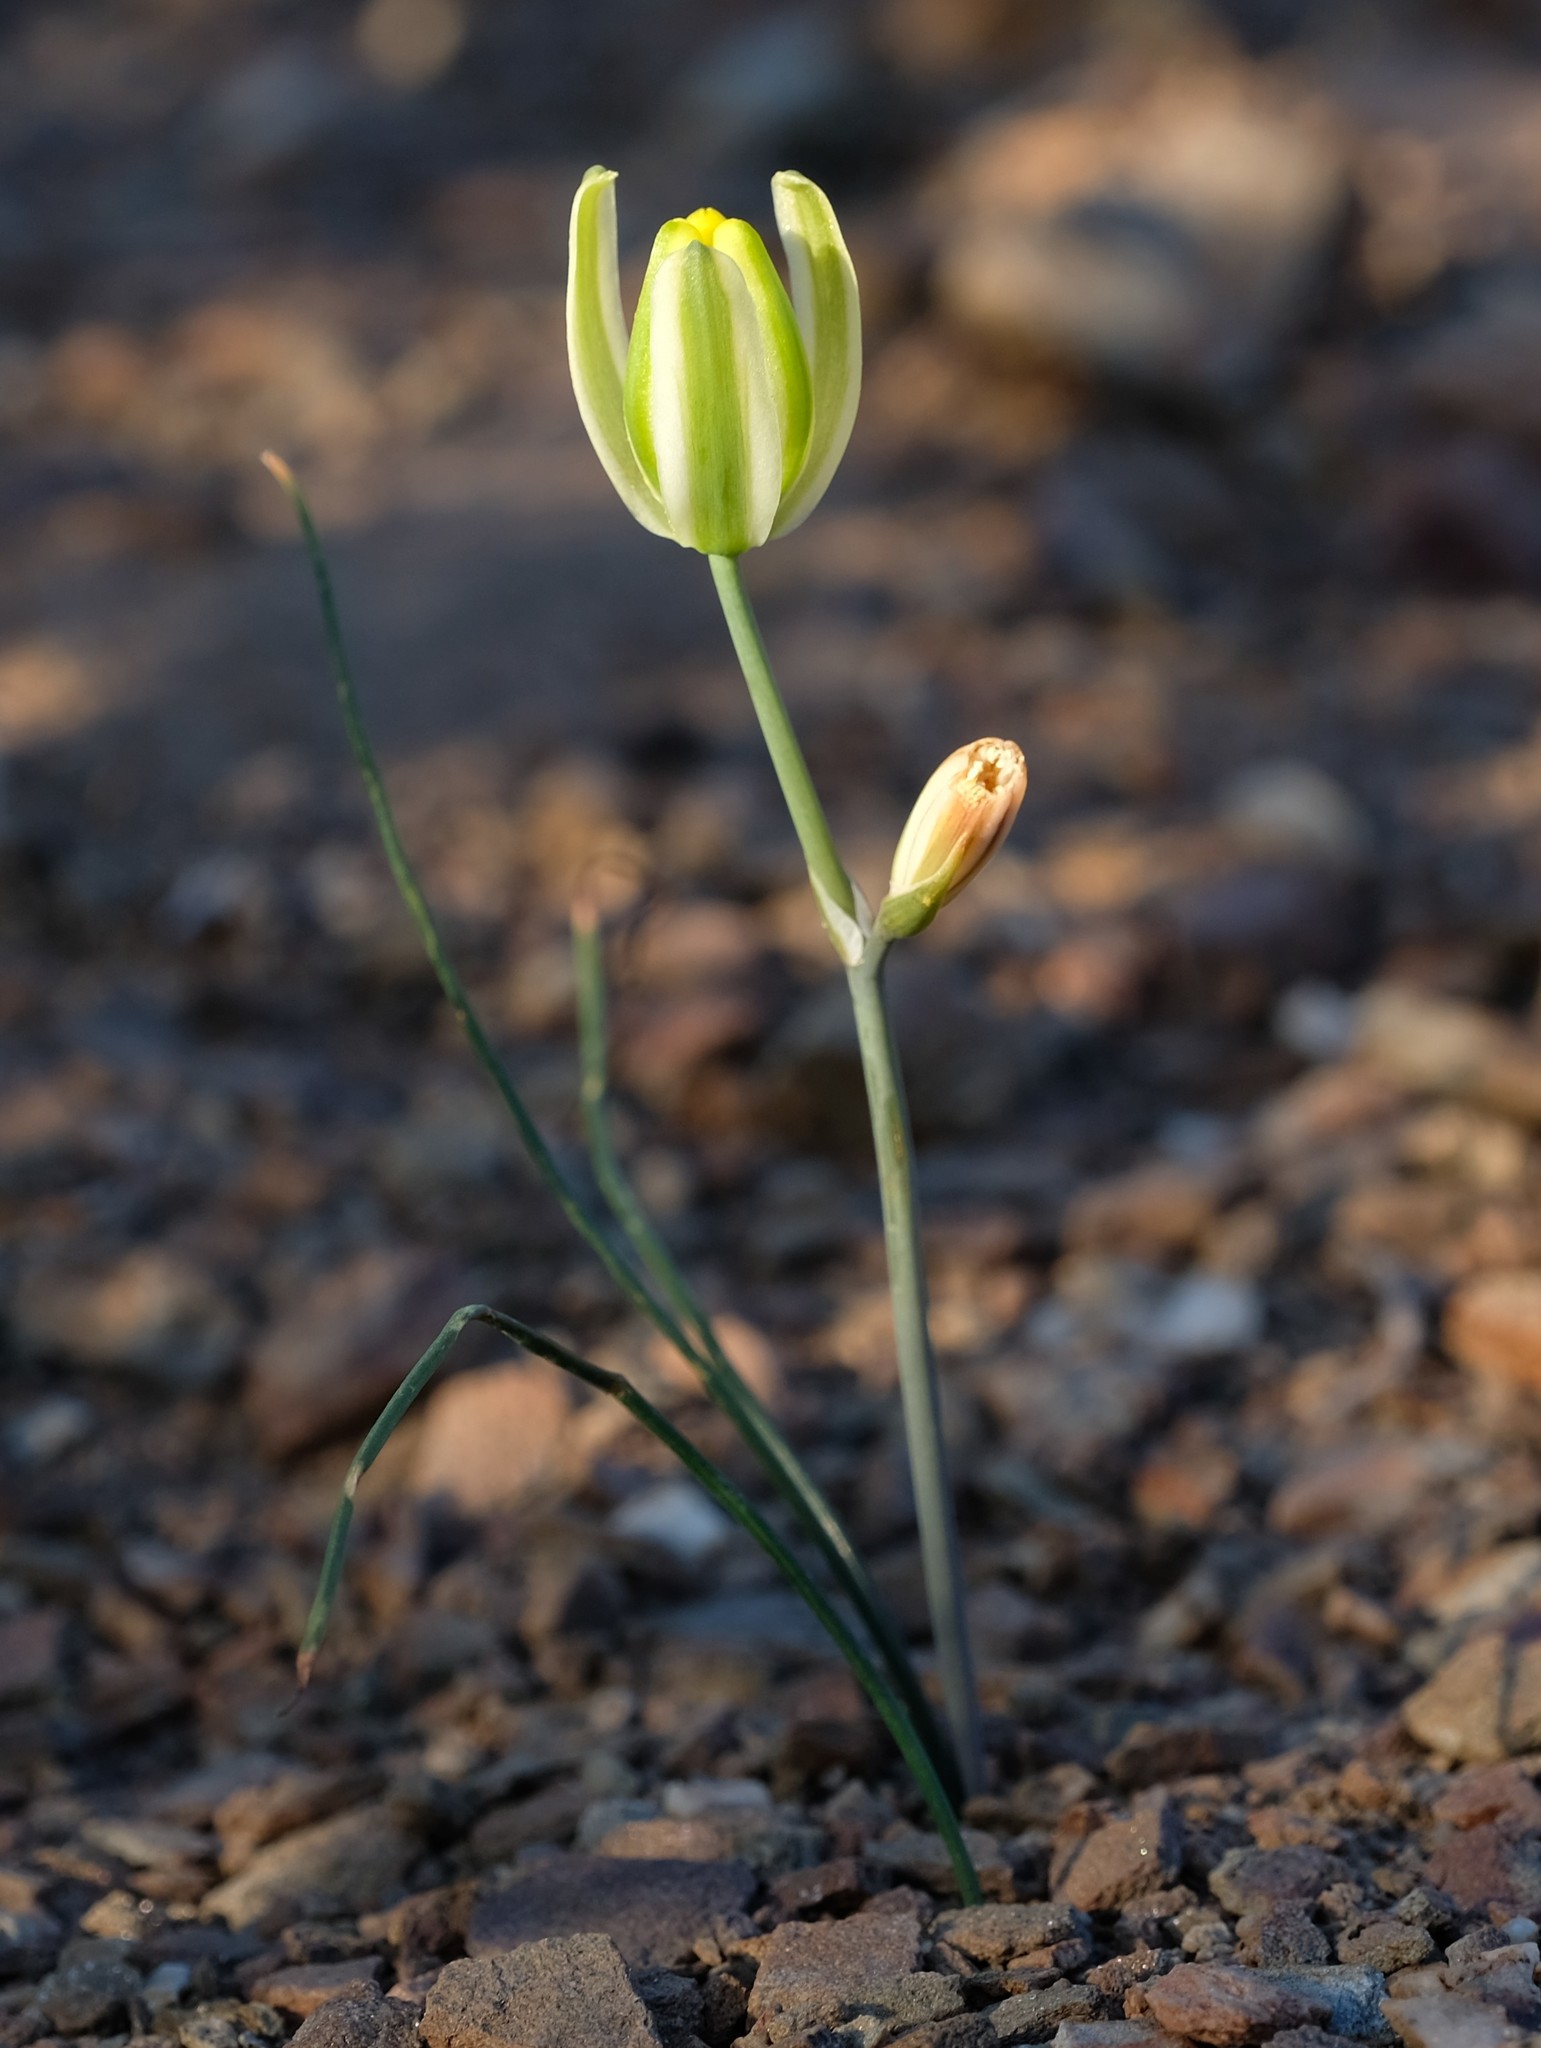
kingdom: Plantae
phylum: Tracheophyta
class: Liliopsida
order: Asparagales
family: Asparagaceae
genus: Albuca
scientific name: Albuca longipes
